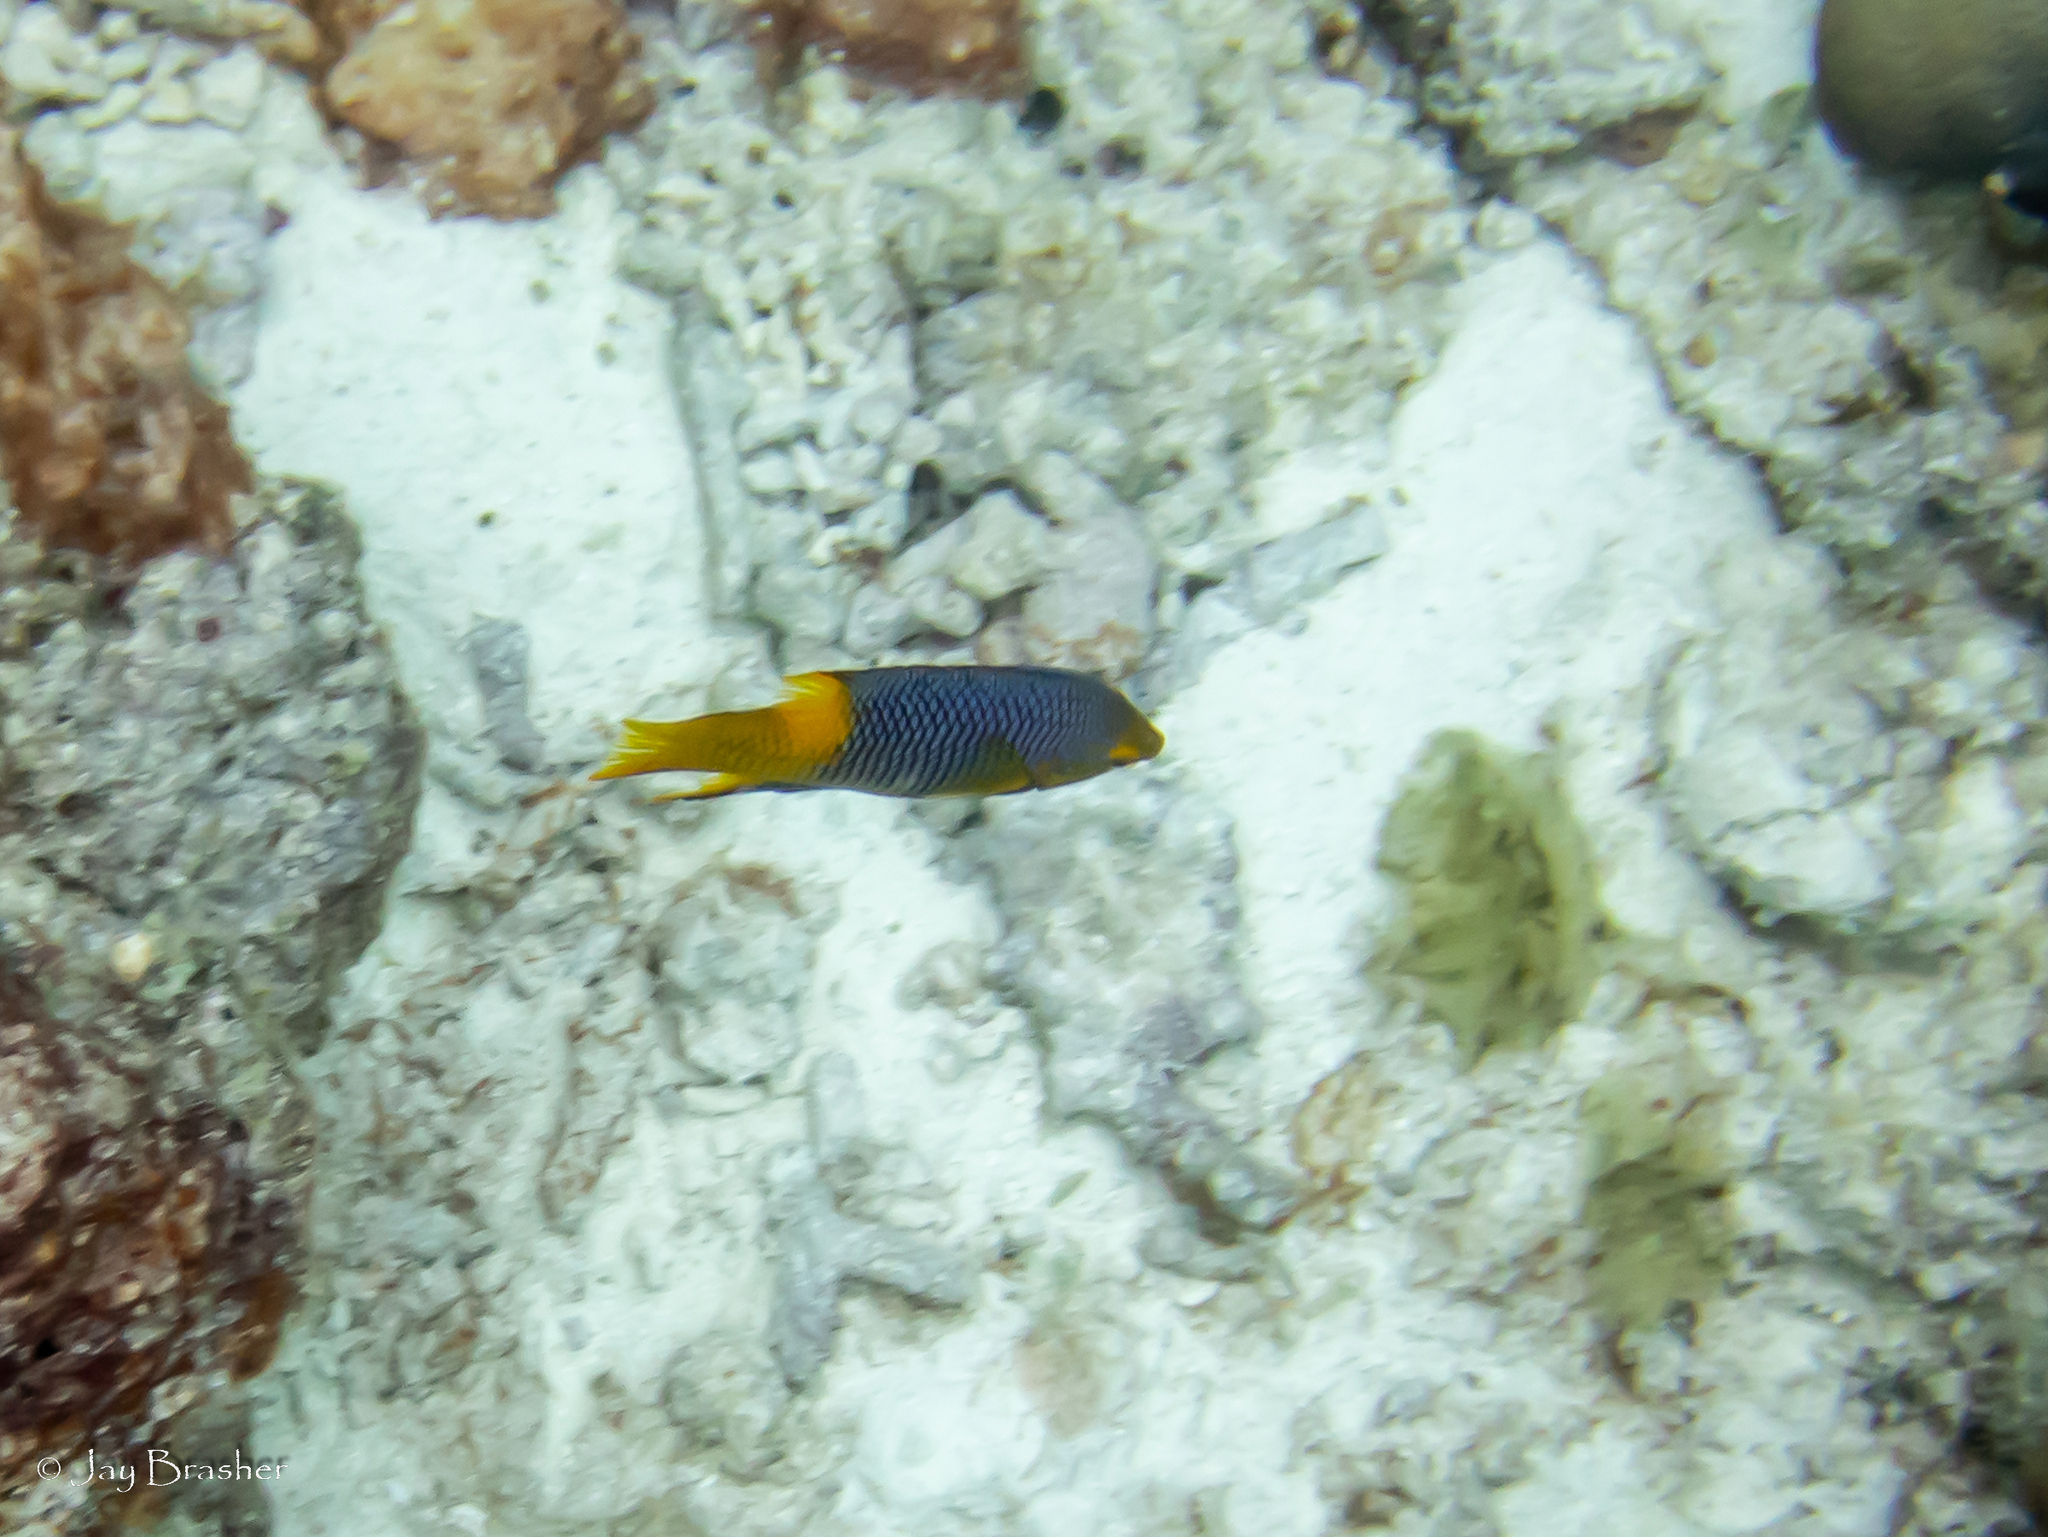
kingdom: Animalia
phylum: Chordata
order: Perciformes
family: Labridae
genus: Bodianus
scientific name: Bodianus rufus
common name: Spanish hogfish
